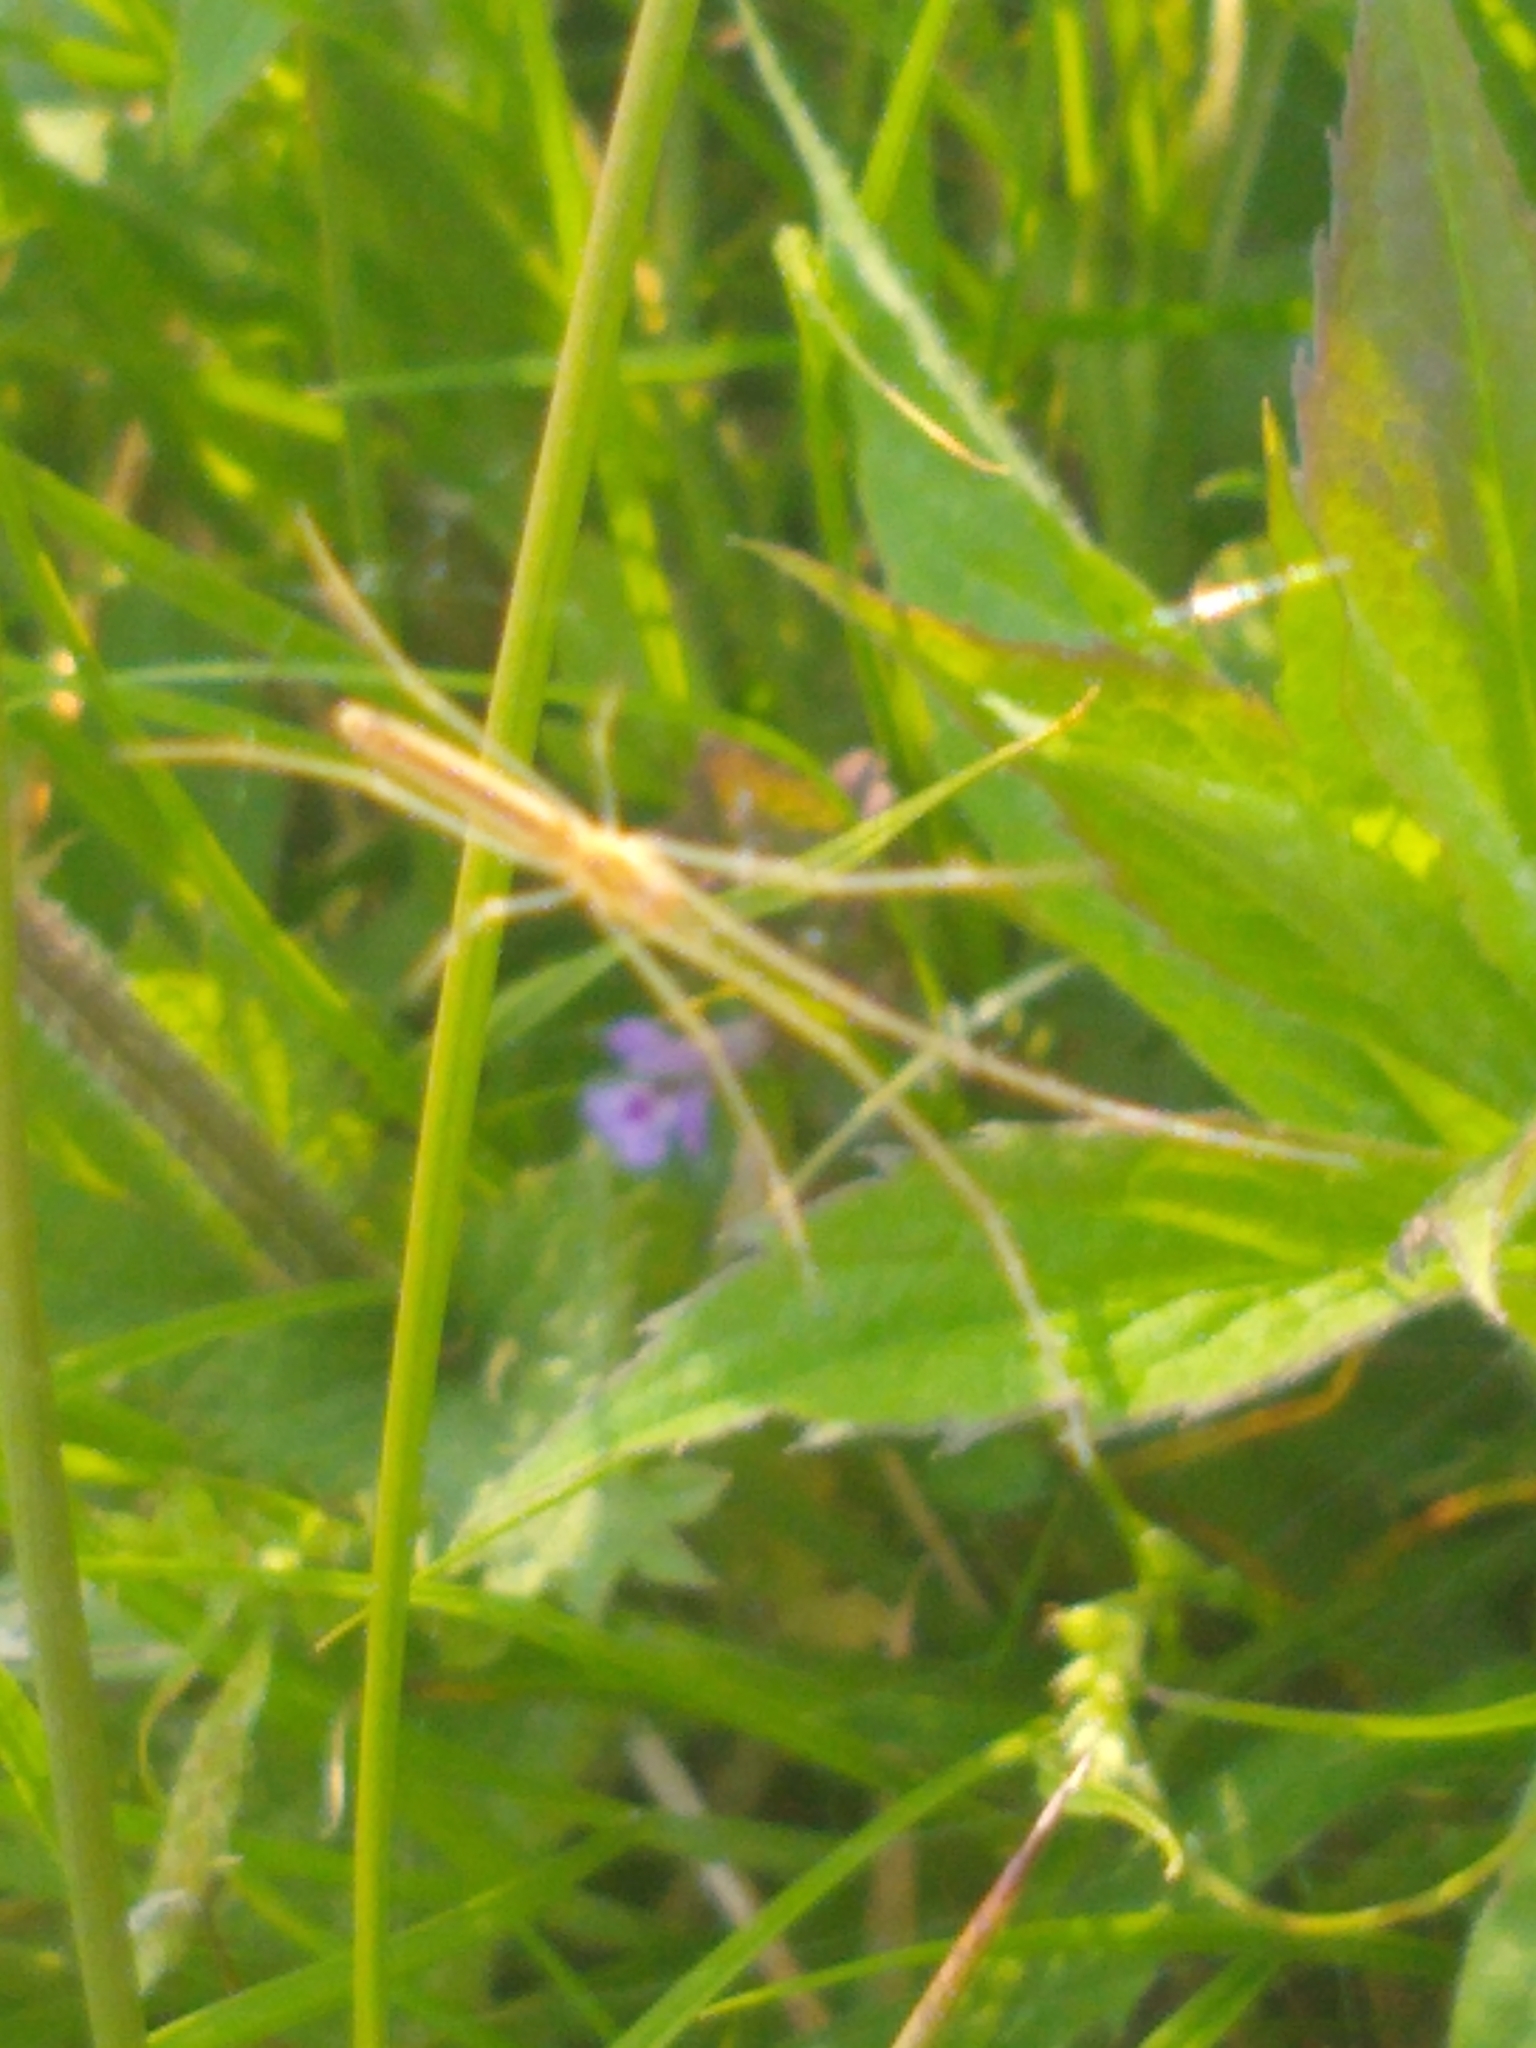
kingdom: Animalia
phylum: Arthropoda
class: Arachnida
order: Araneae
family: Tetragnathidae
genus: Tetragnatha
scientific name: Tetragnatha
